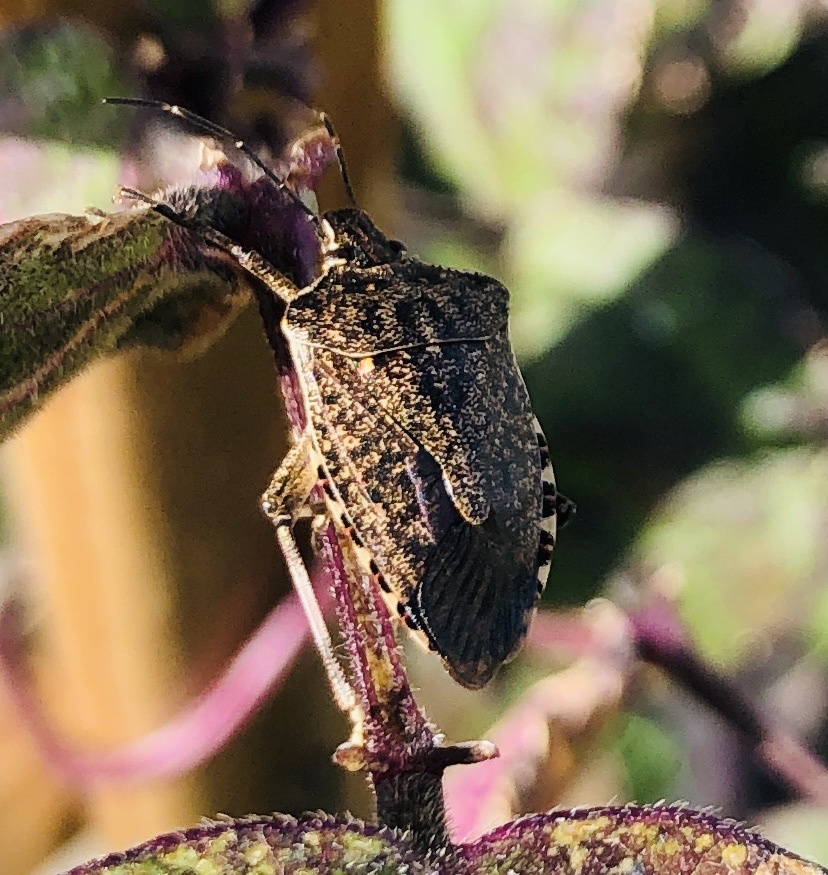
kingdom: Animalia
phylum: Arthropoda
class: Insecta
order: Hemiptera
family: Pentatomidae
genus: Halyomorpha
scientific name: Halyomorpha halys
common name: Brown marmorated stink bug
